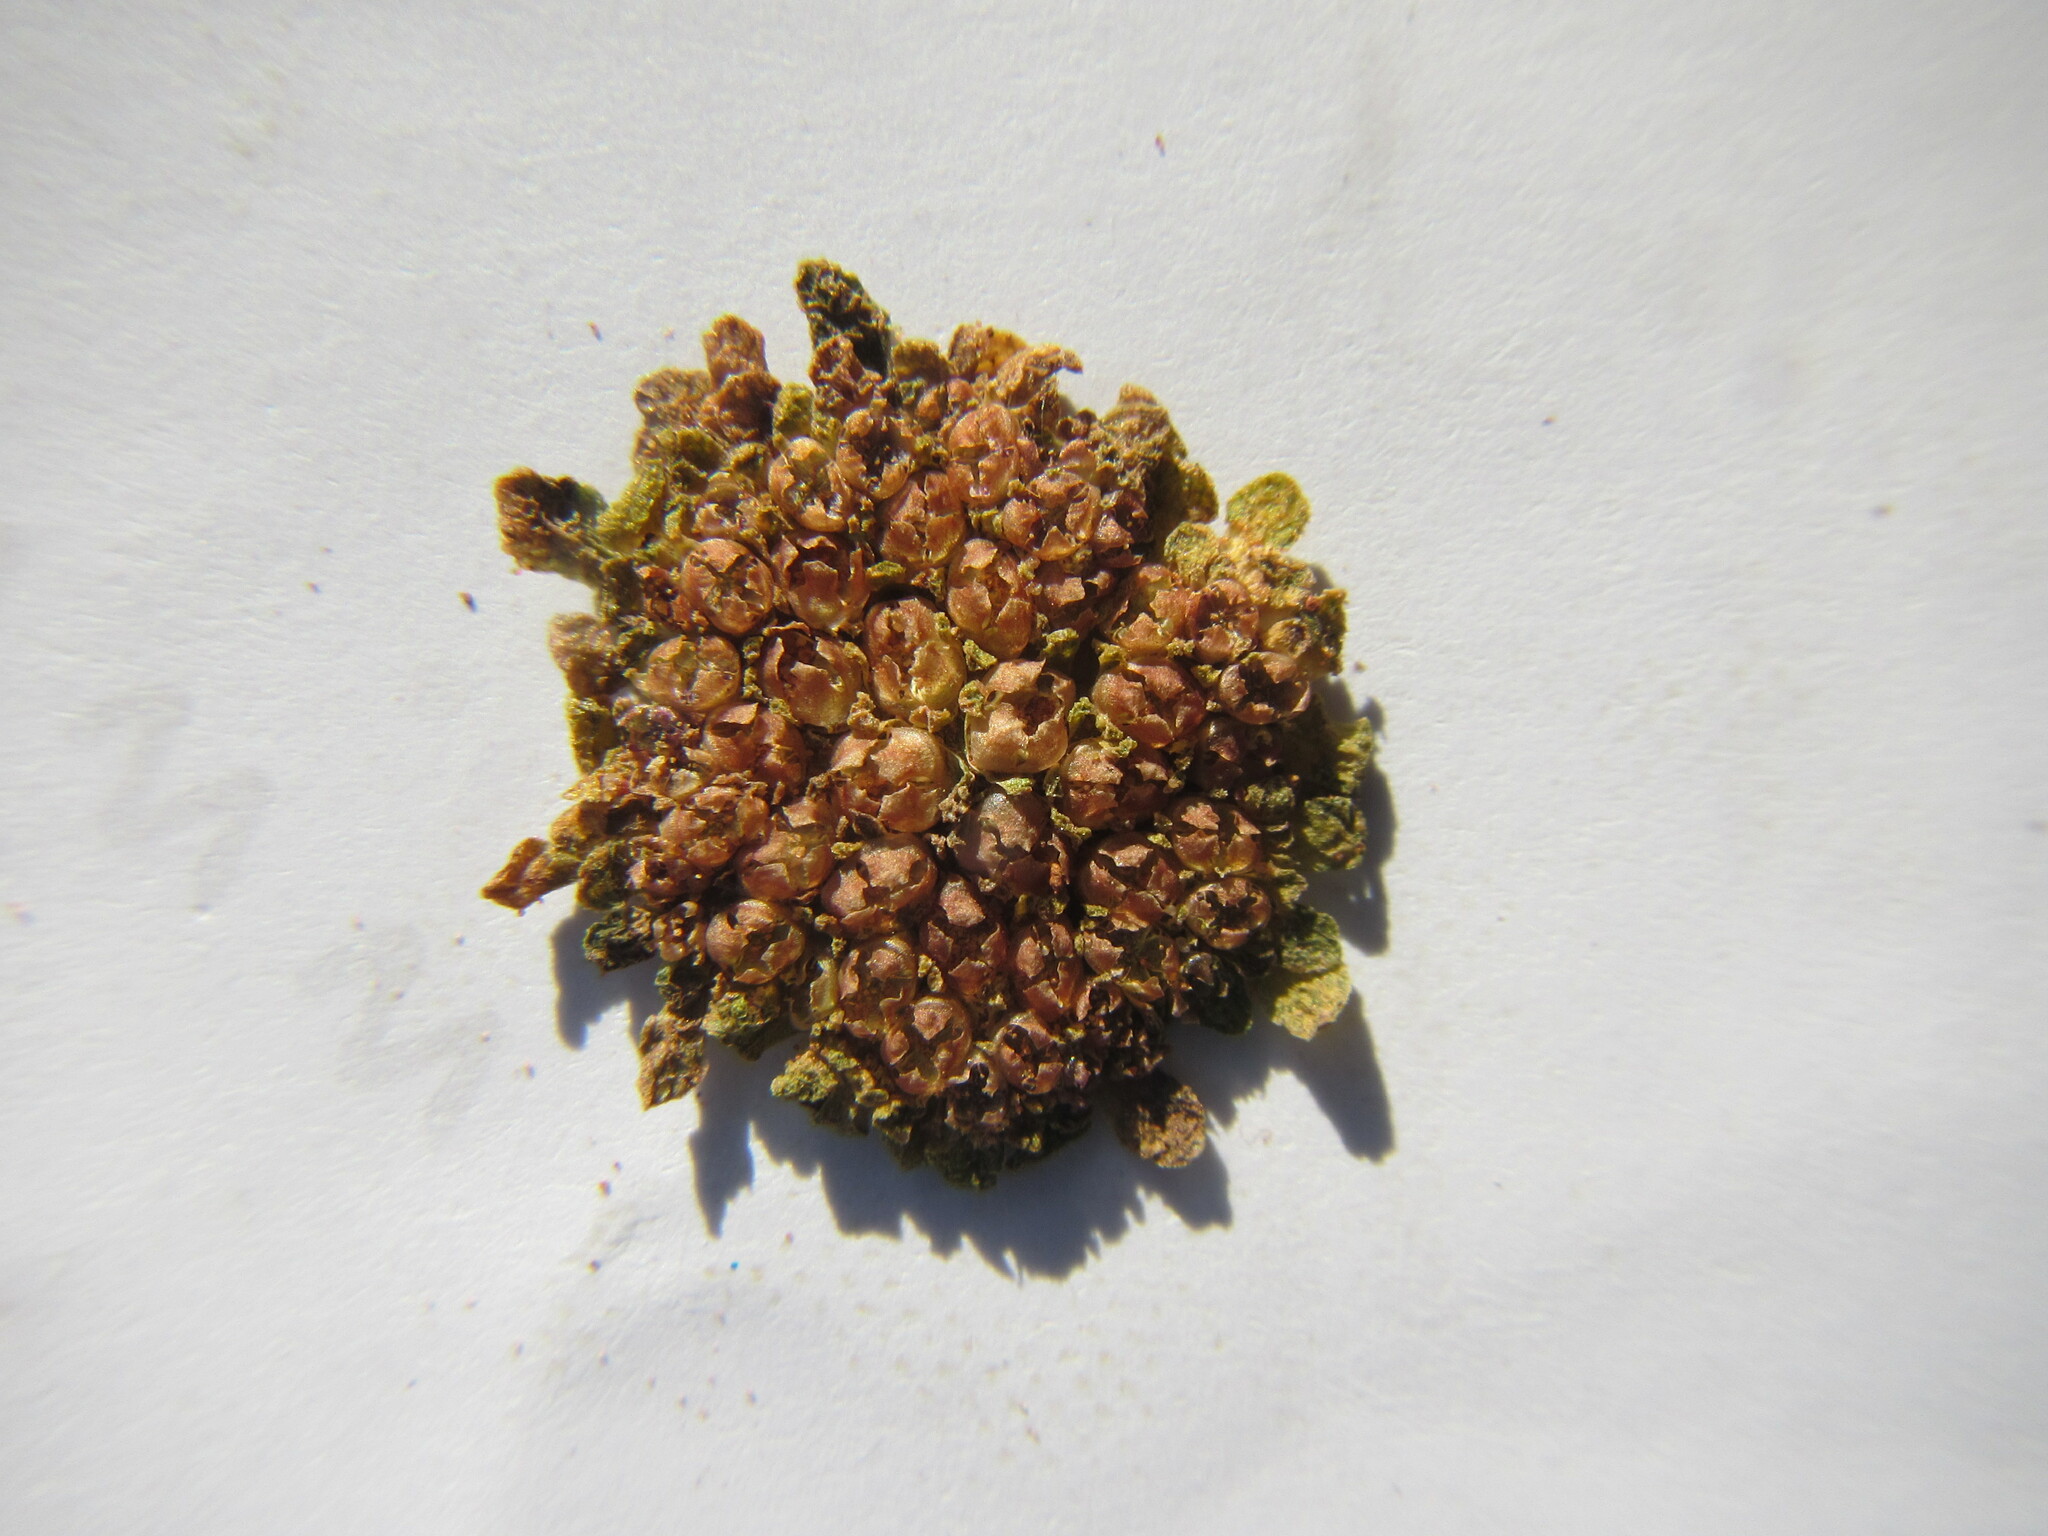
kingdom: Plantae
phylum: Tracheophyta
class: Magnoliopsida
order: Saxifragales
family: Crassulaceae
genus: Crassula
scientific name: Crassula pageae
